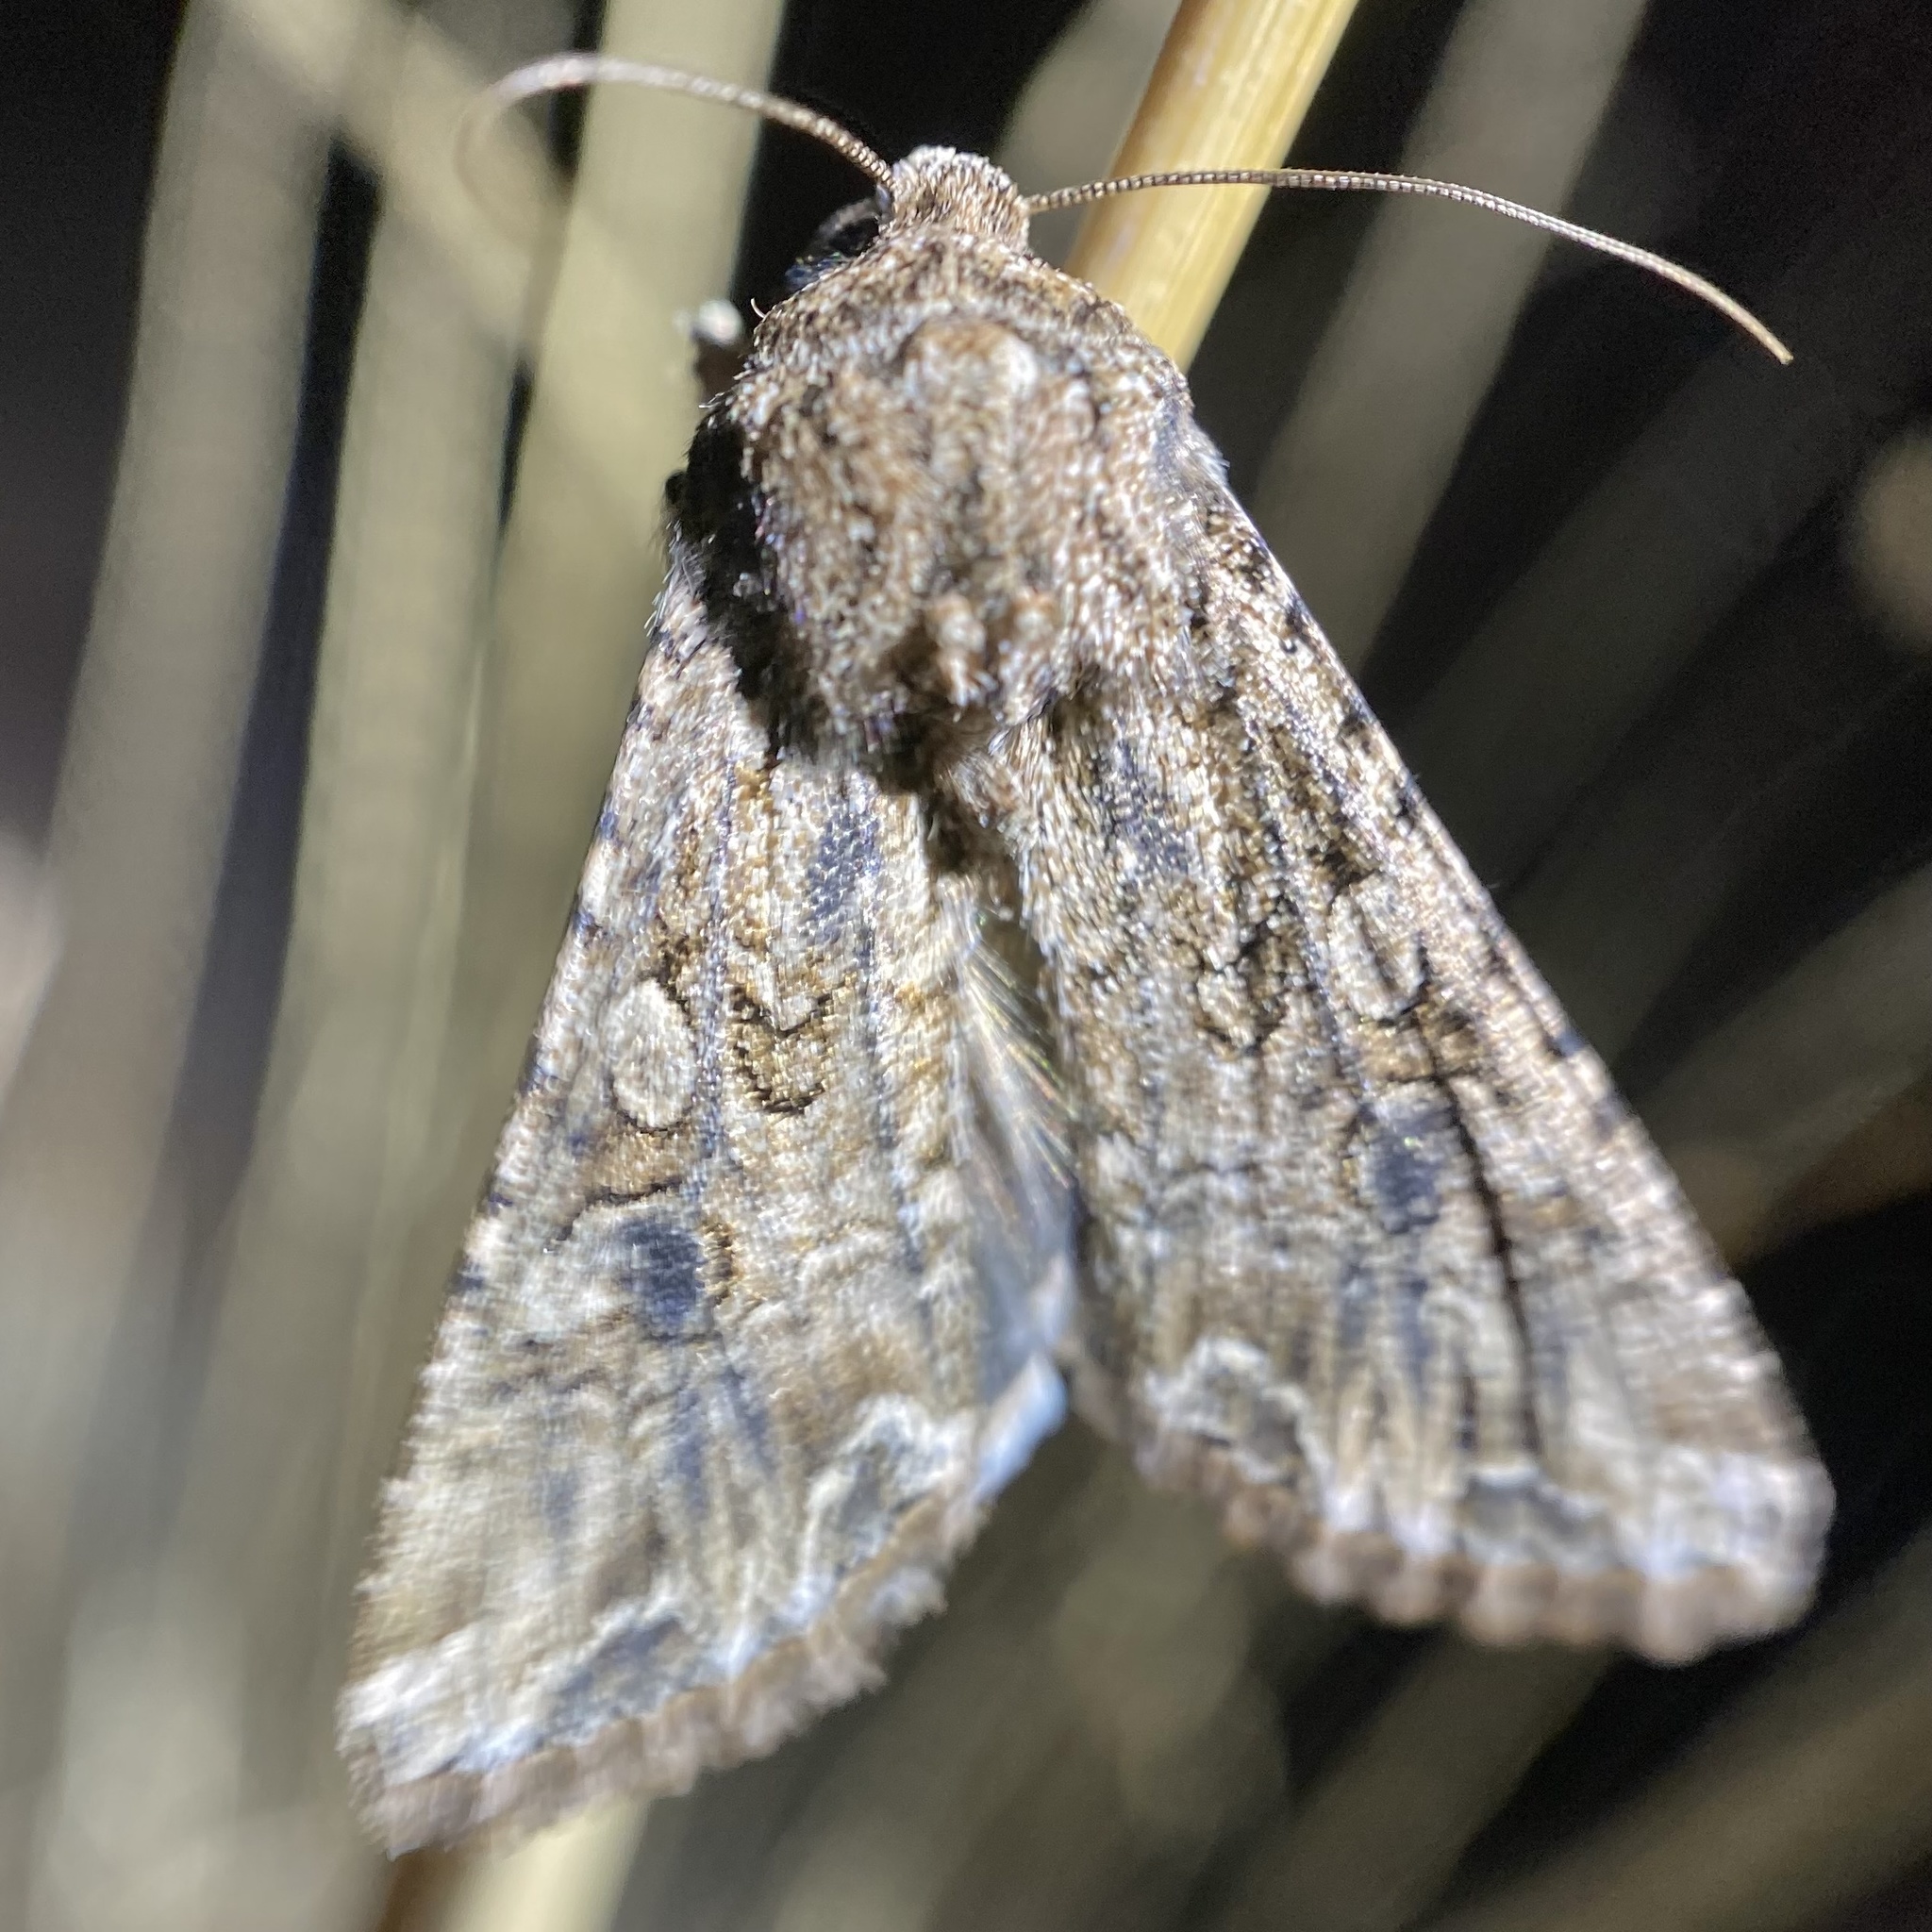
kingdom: Animalia
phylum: Arthropoda
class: Insecta
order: Lepidoptera
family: Noctuidae
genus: Anarta
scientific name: Anarta mutata
